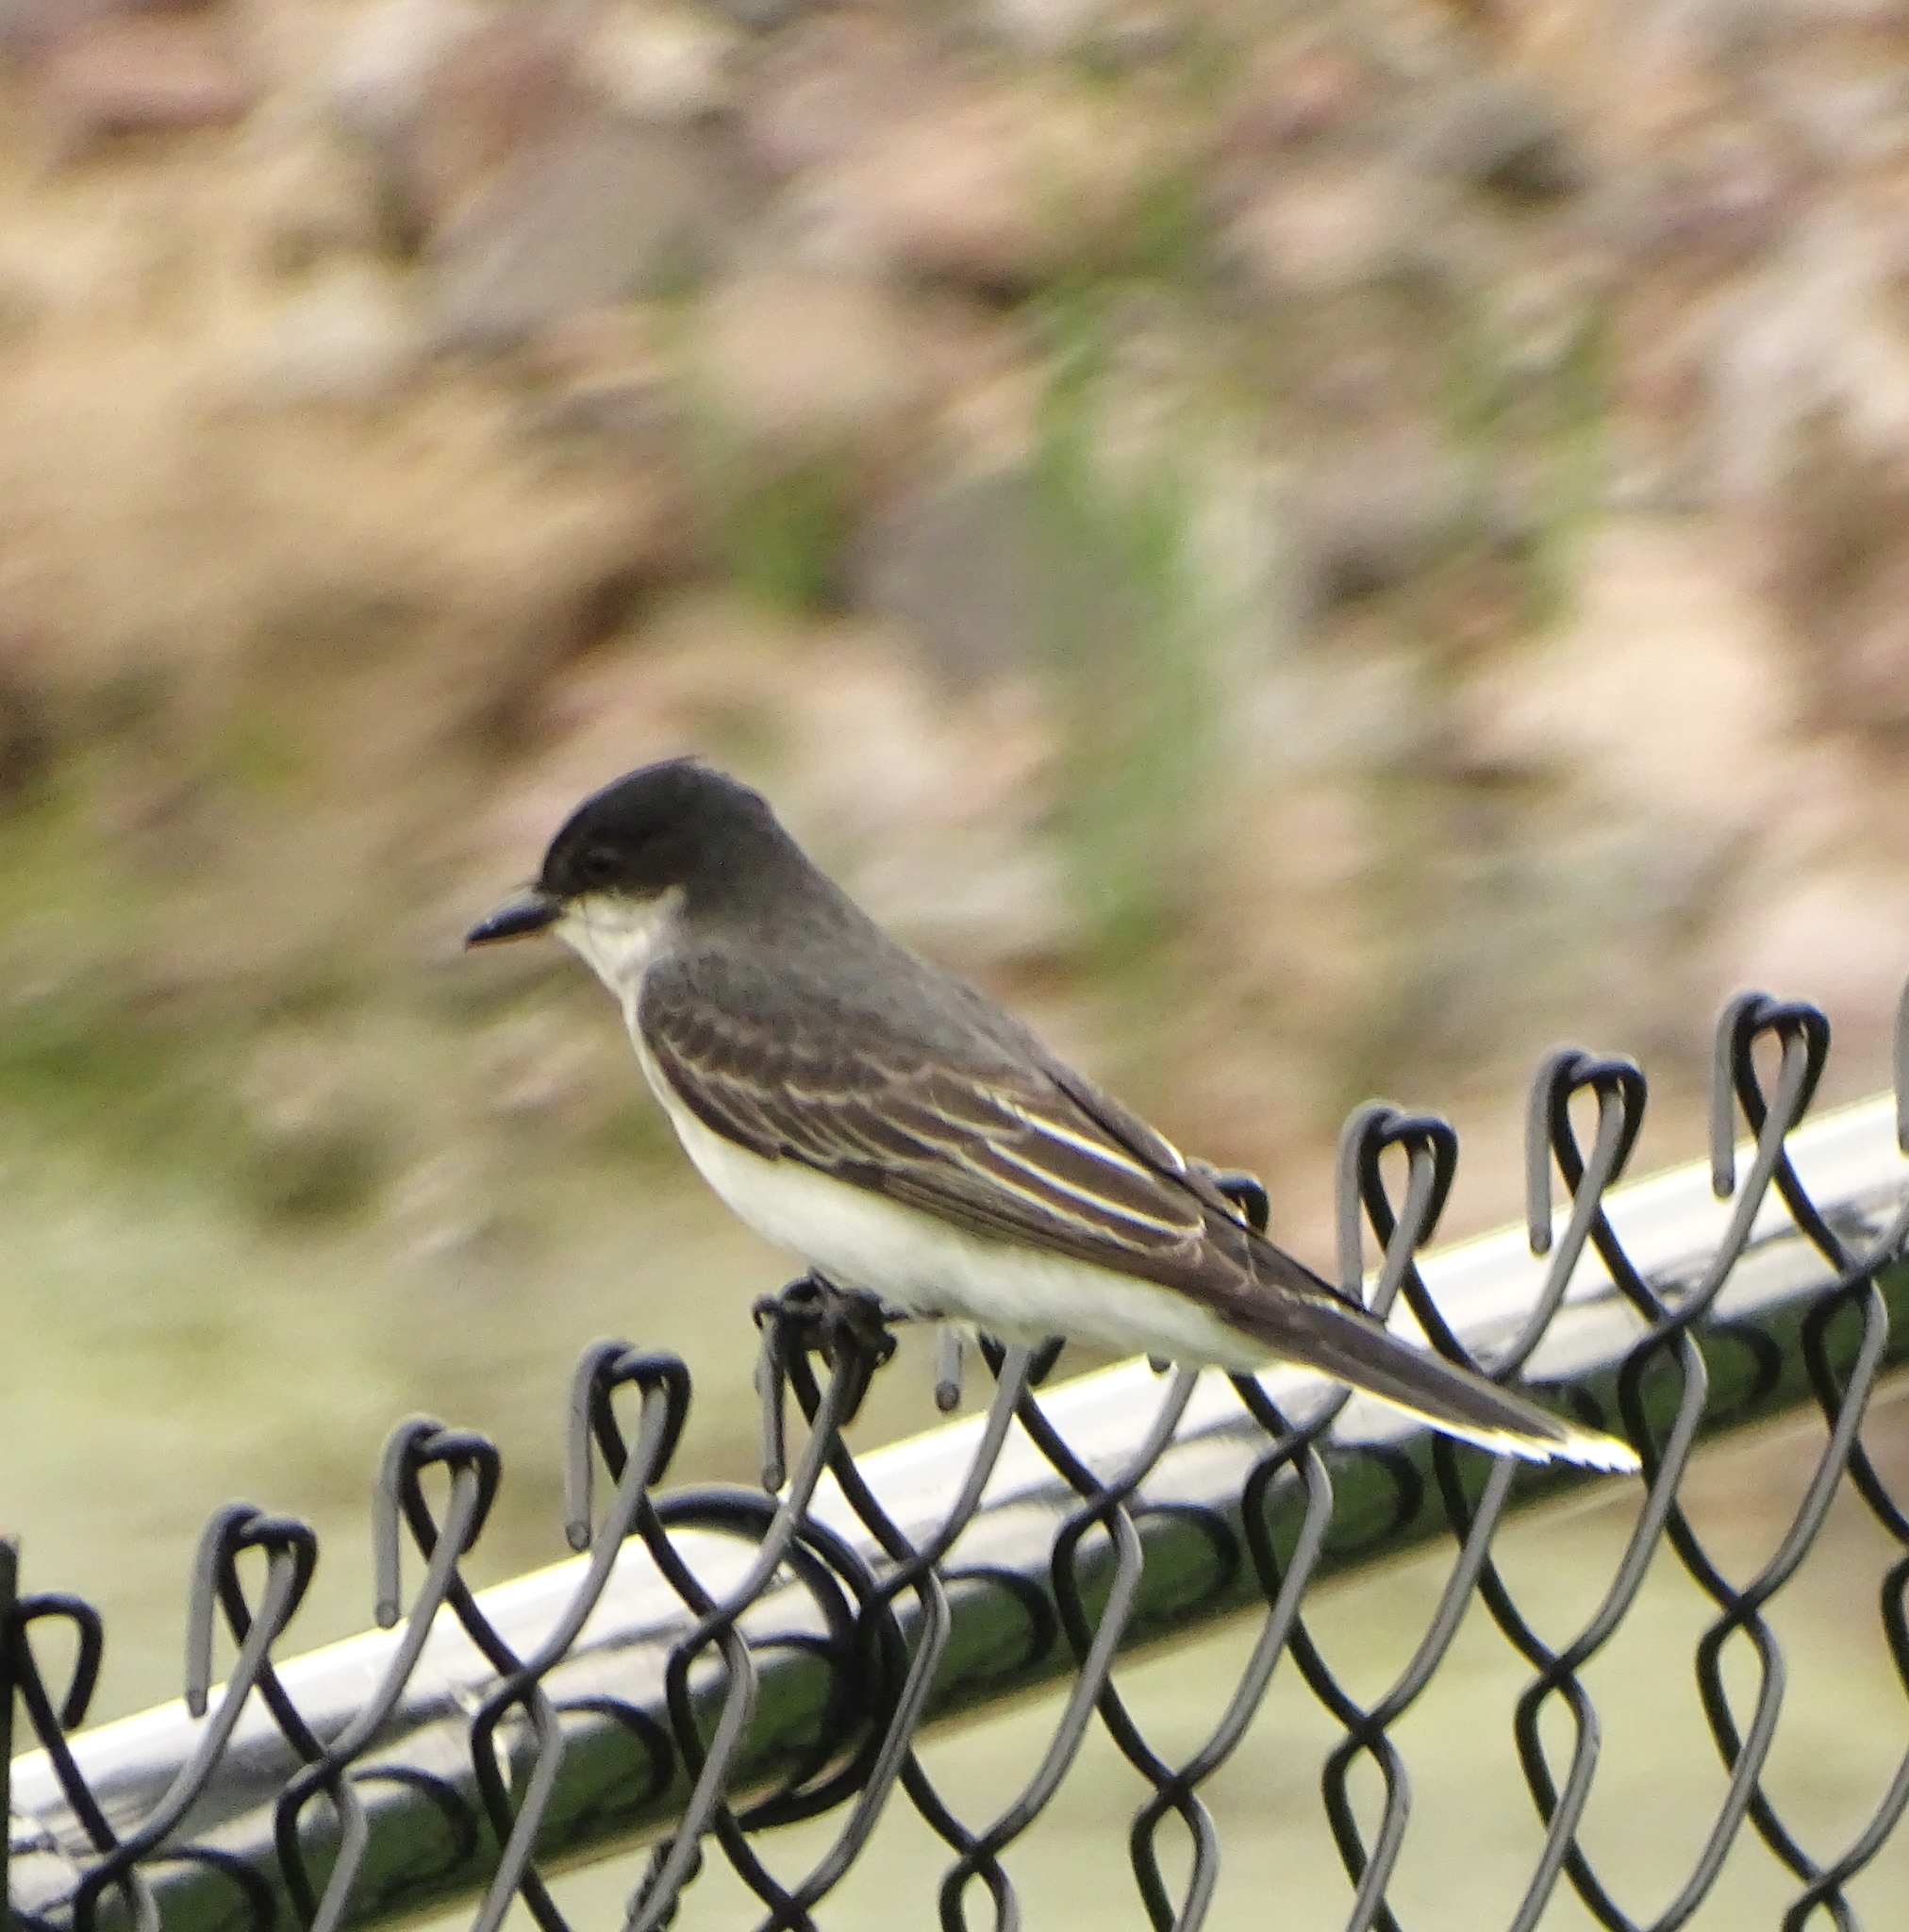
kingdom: Animalia
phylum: Chordata
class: Aves
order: Passeriformes
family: Tyrannidae
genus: Tyrannus
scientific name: Tyrannus tyrannus
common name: Eastern kingbird
